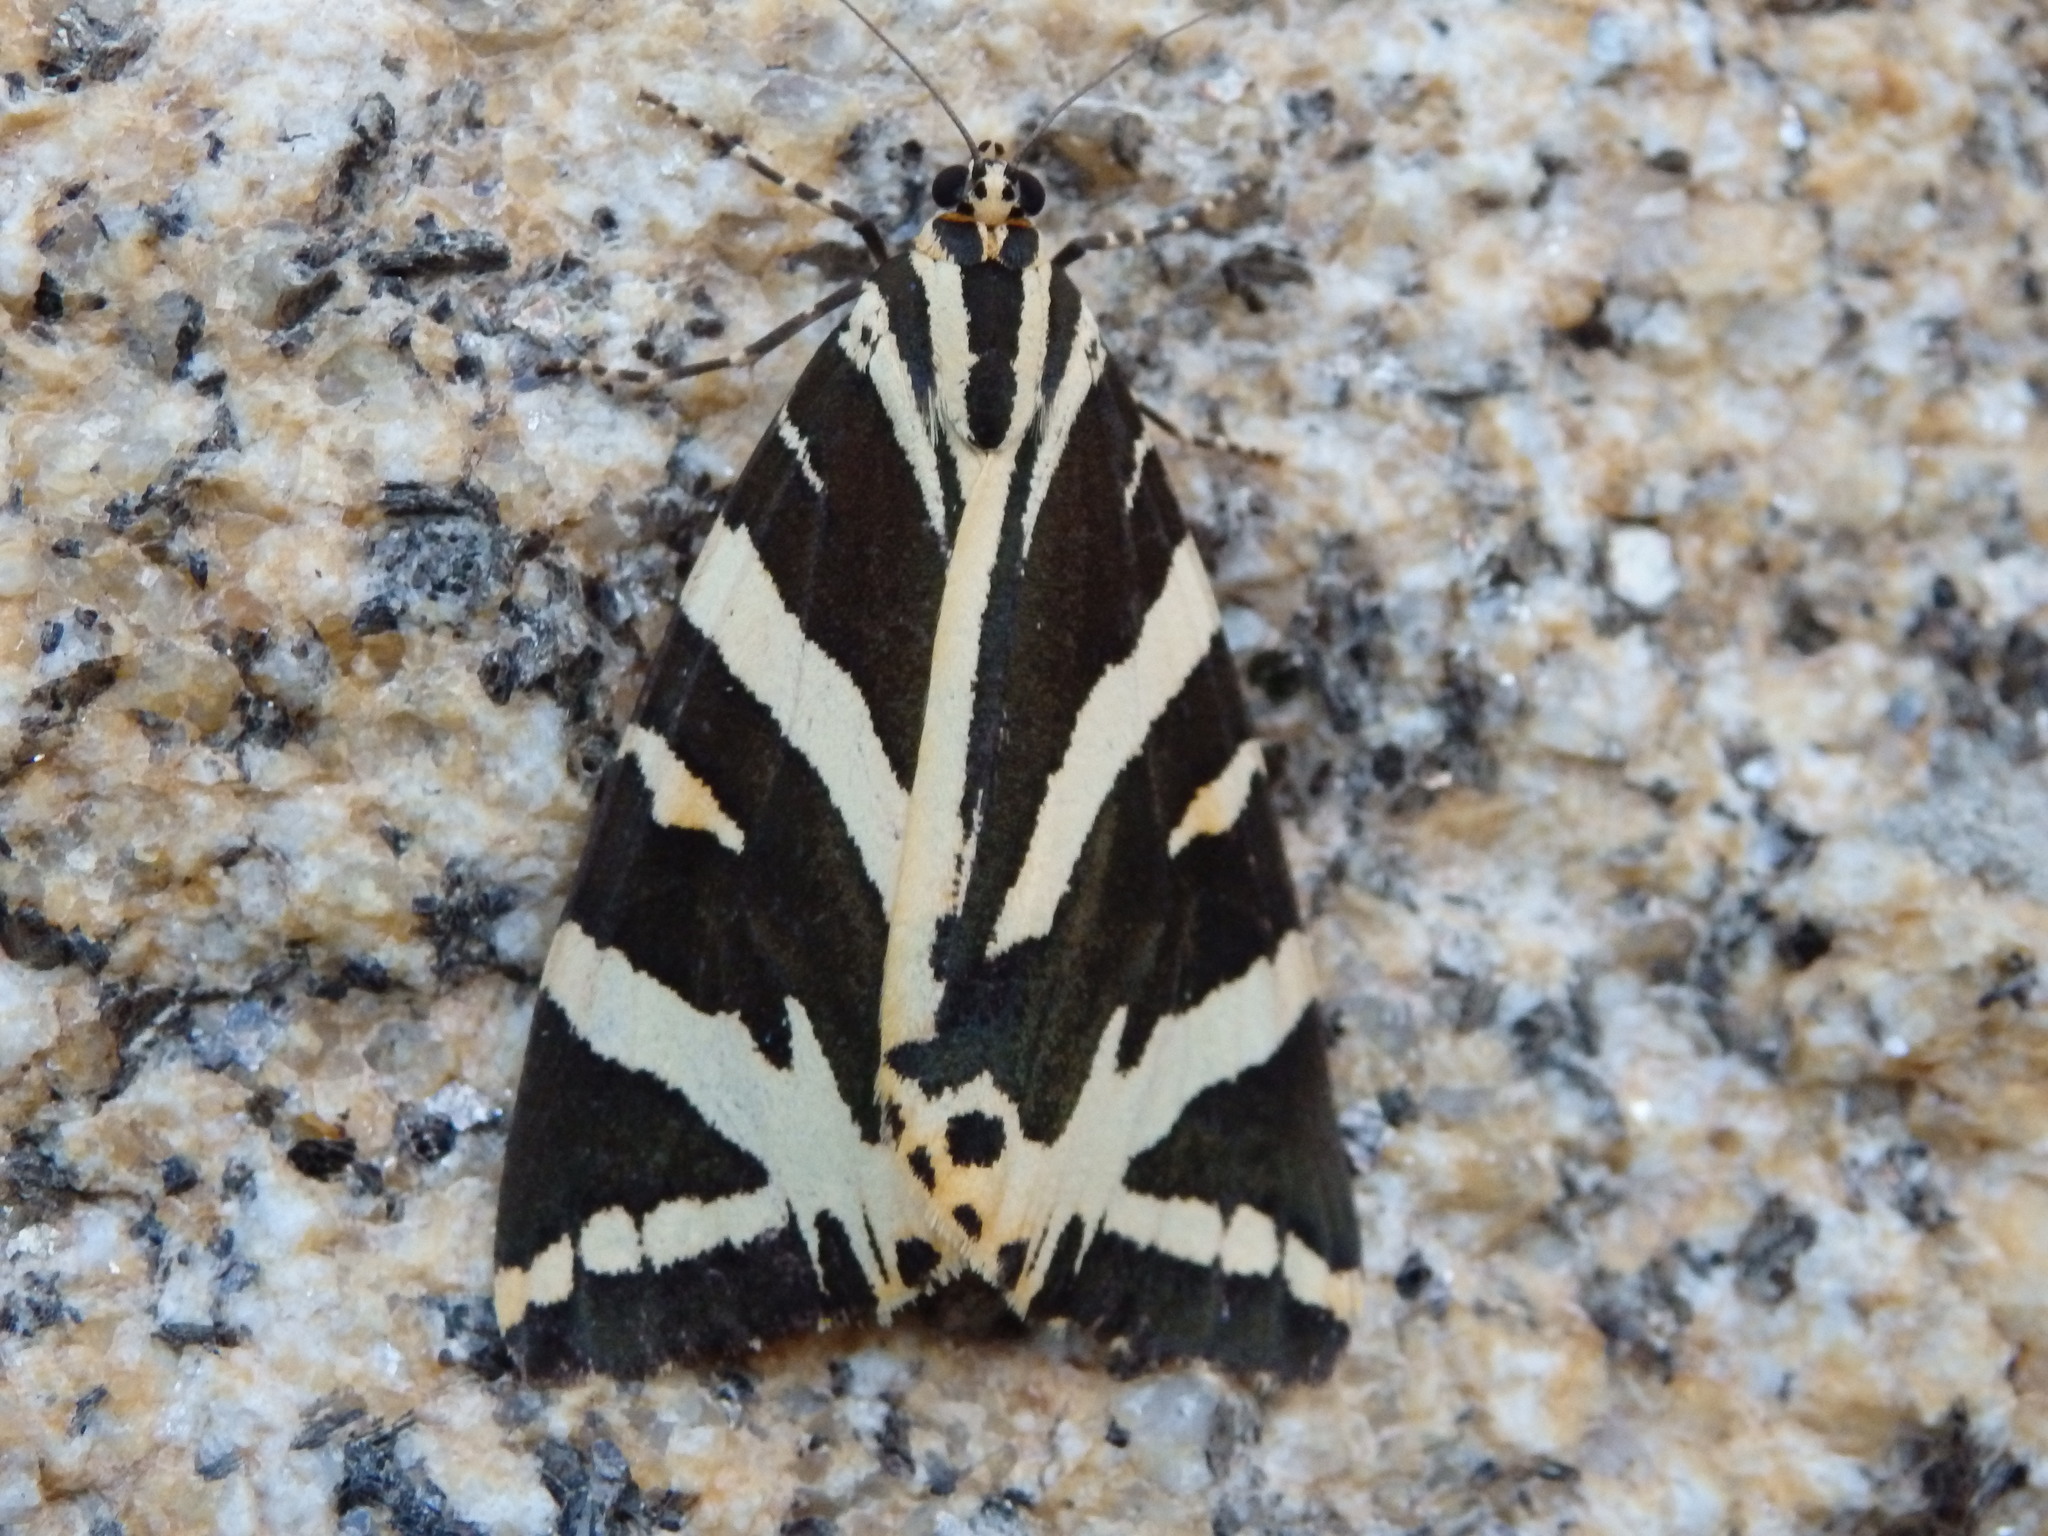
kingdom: Animalia
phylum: Arthropoda
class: Insecta
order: Lepidoptera
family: Erebidae
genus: Euplagia
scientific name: Euplagia quadripunctaria
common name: Jersey tiger
